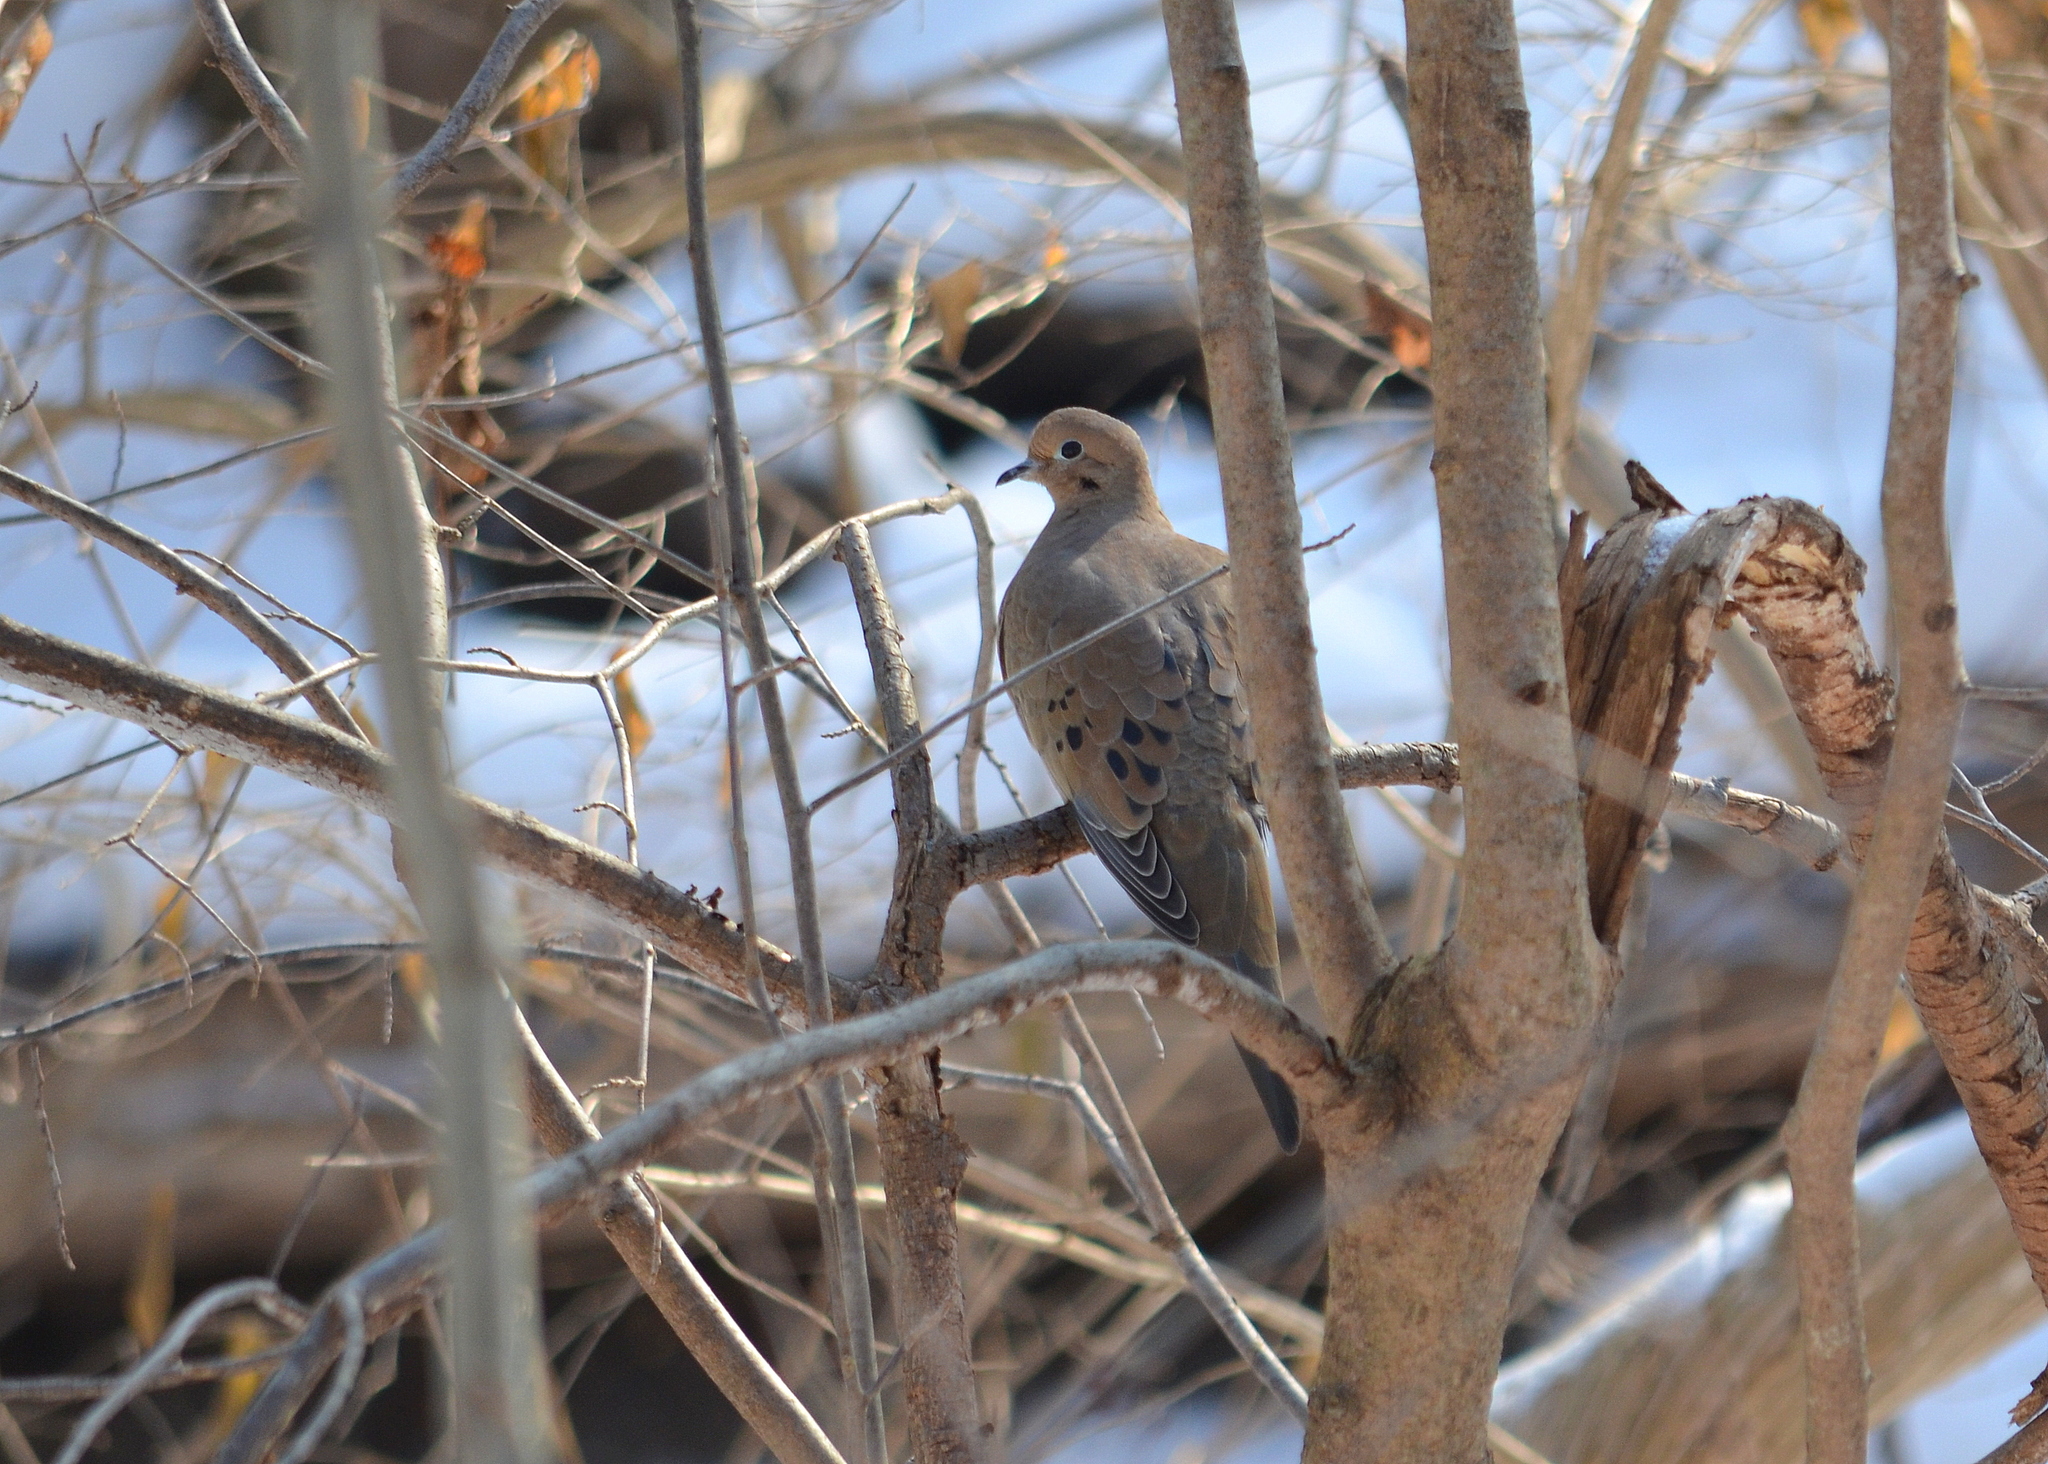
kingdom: Animalia
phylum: Chordata
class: Aves
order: Columbiformes
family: Columbidae
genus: Zenaida
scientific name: Zenaida macroura
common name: Mourning dove
